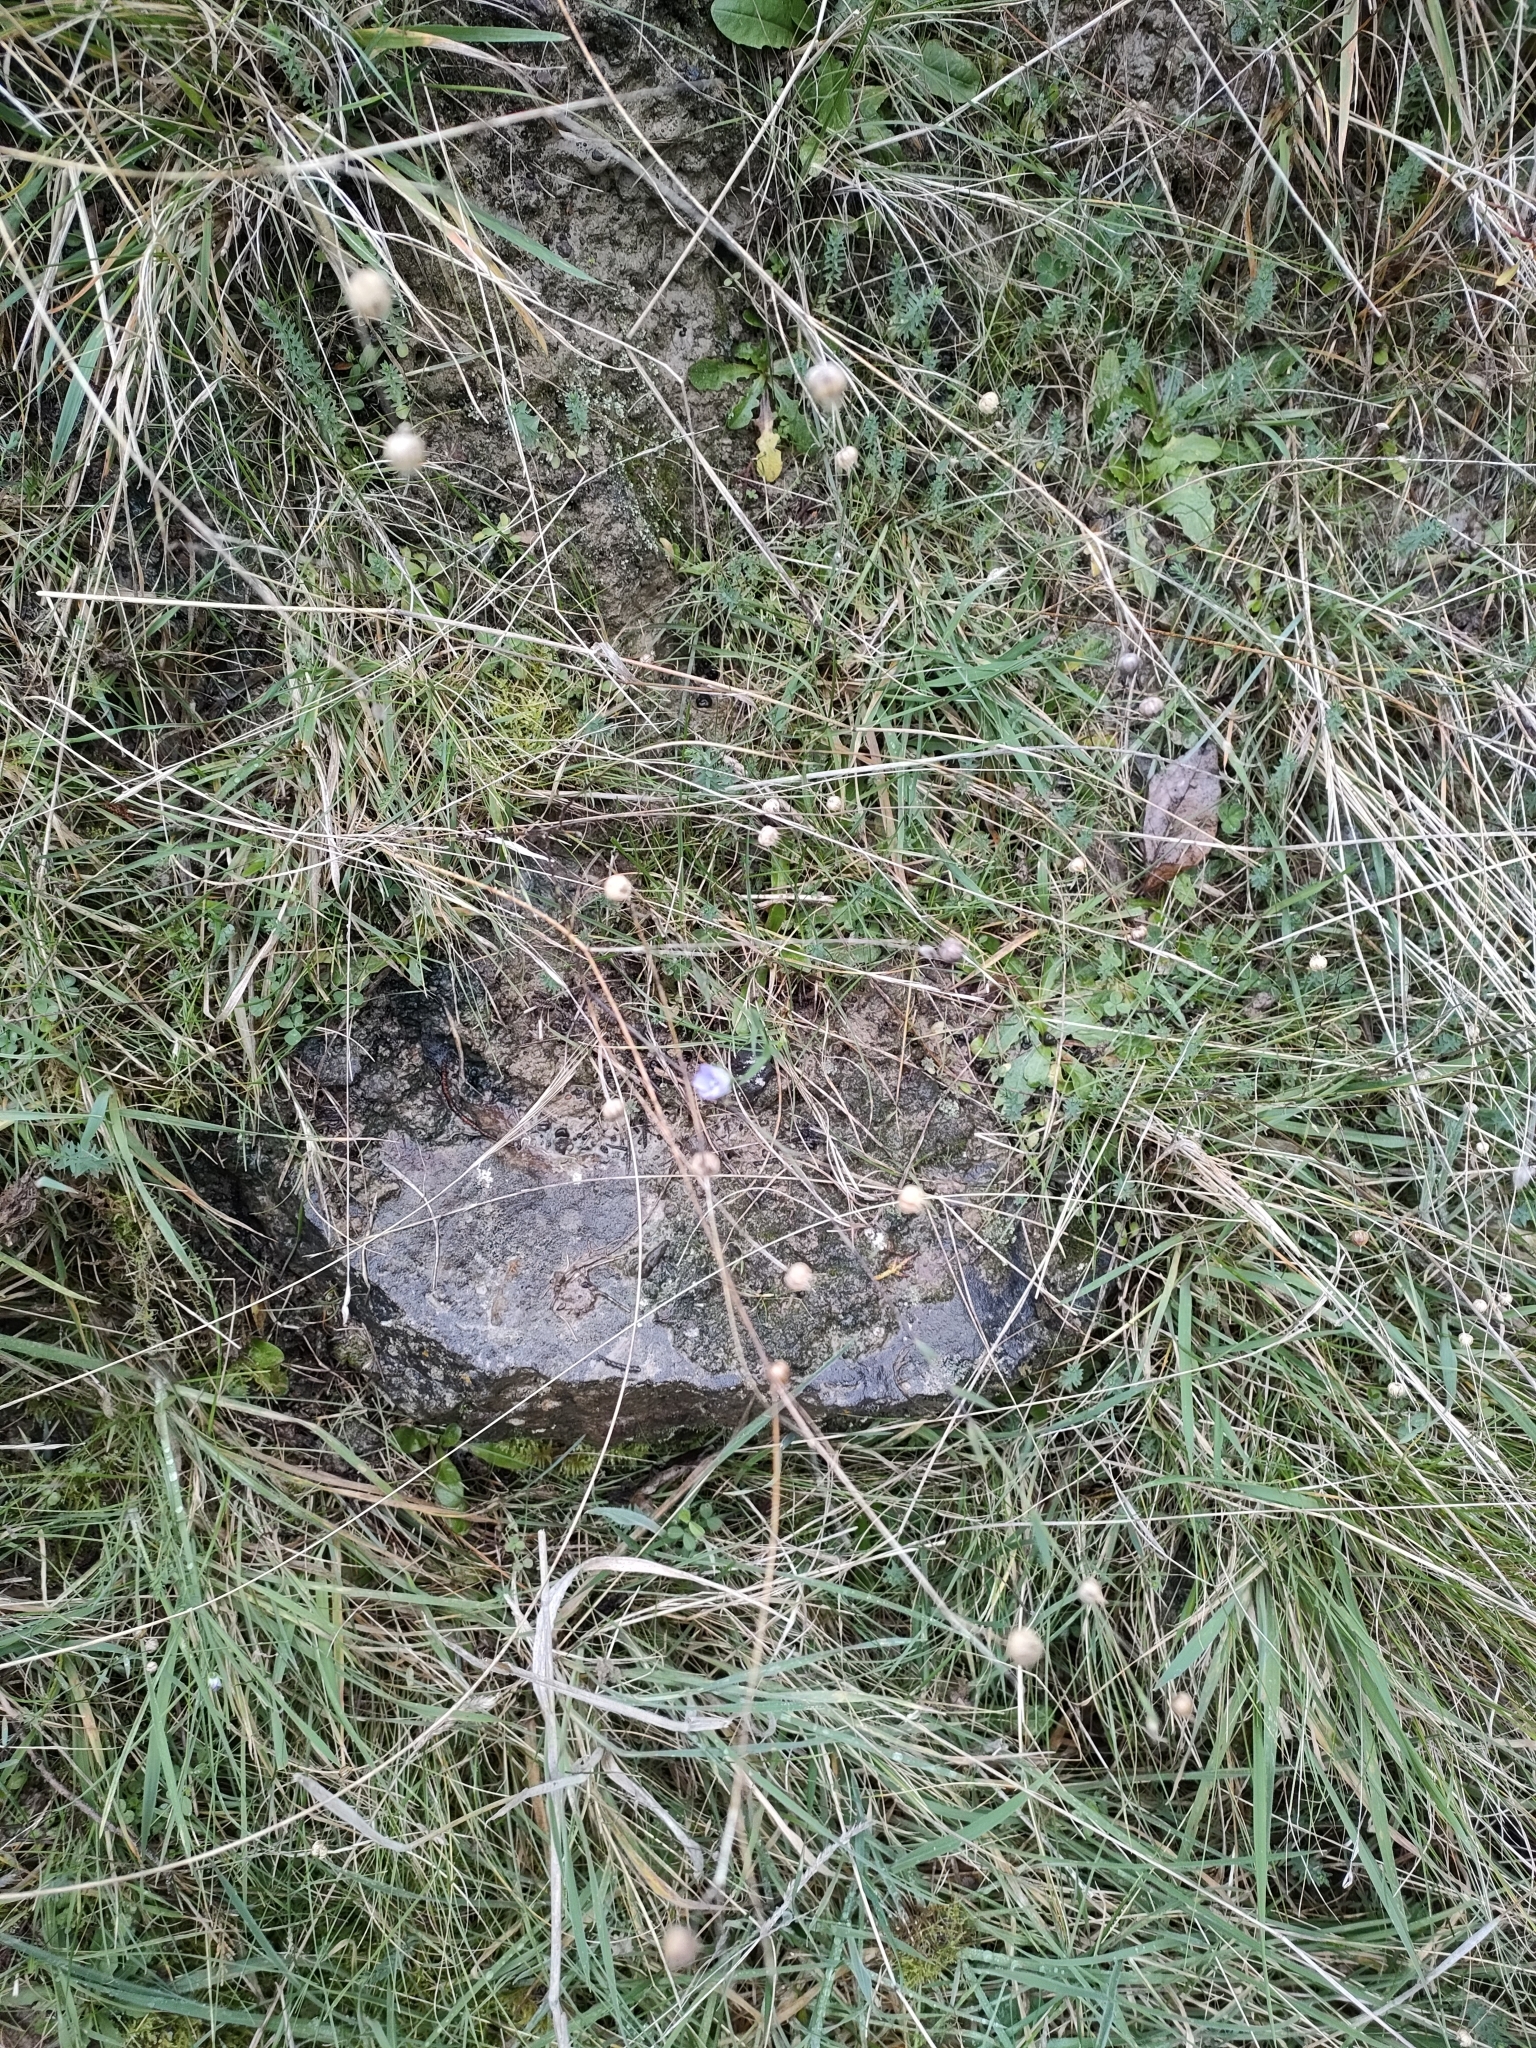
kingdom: Plantae
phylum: Tracheophyta
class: Magnoliopsida
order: Malpighiales
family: Linaceae
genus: Linum
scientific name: Linum bienne
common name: Pale flax
